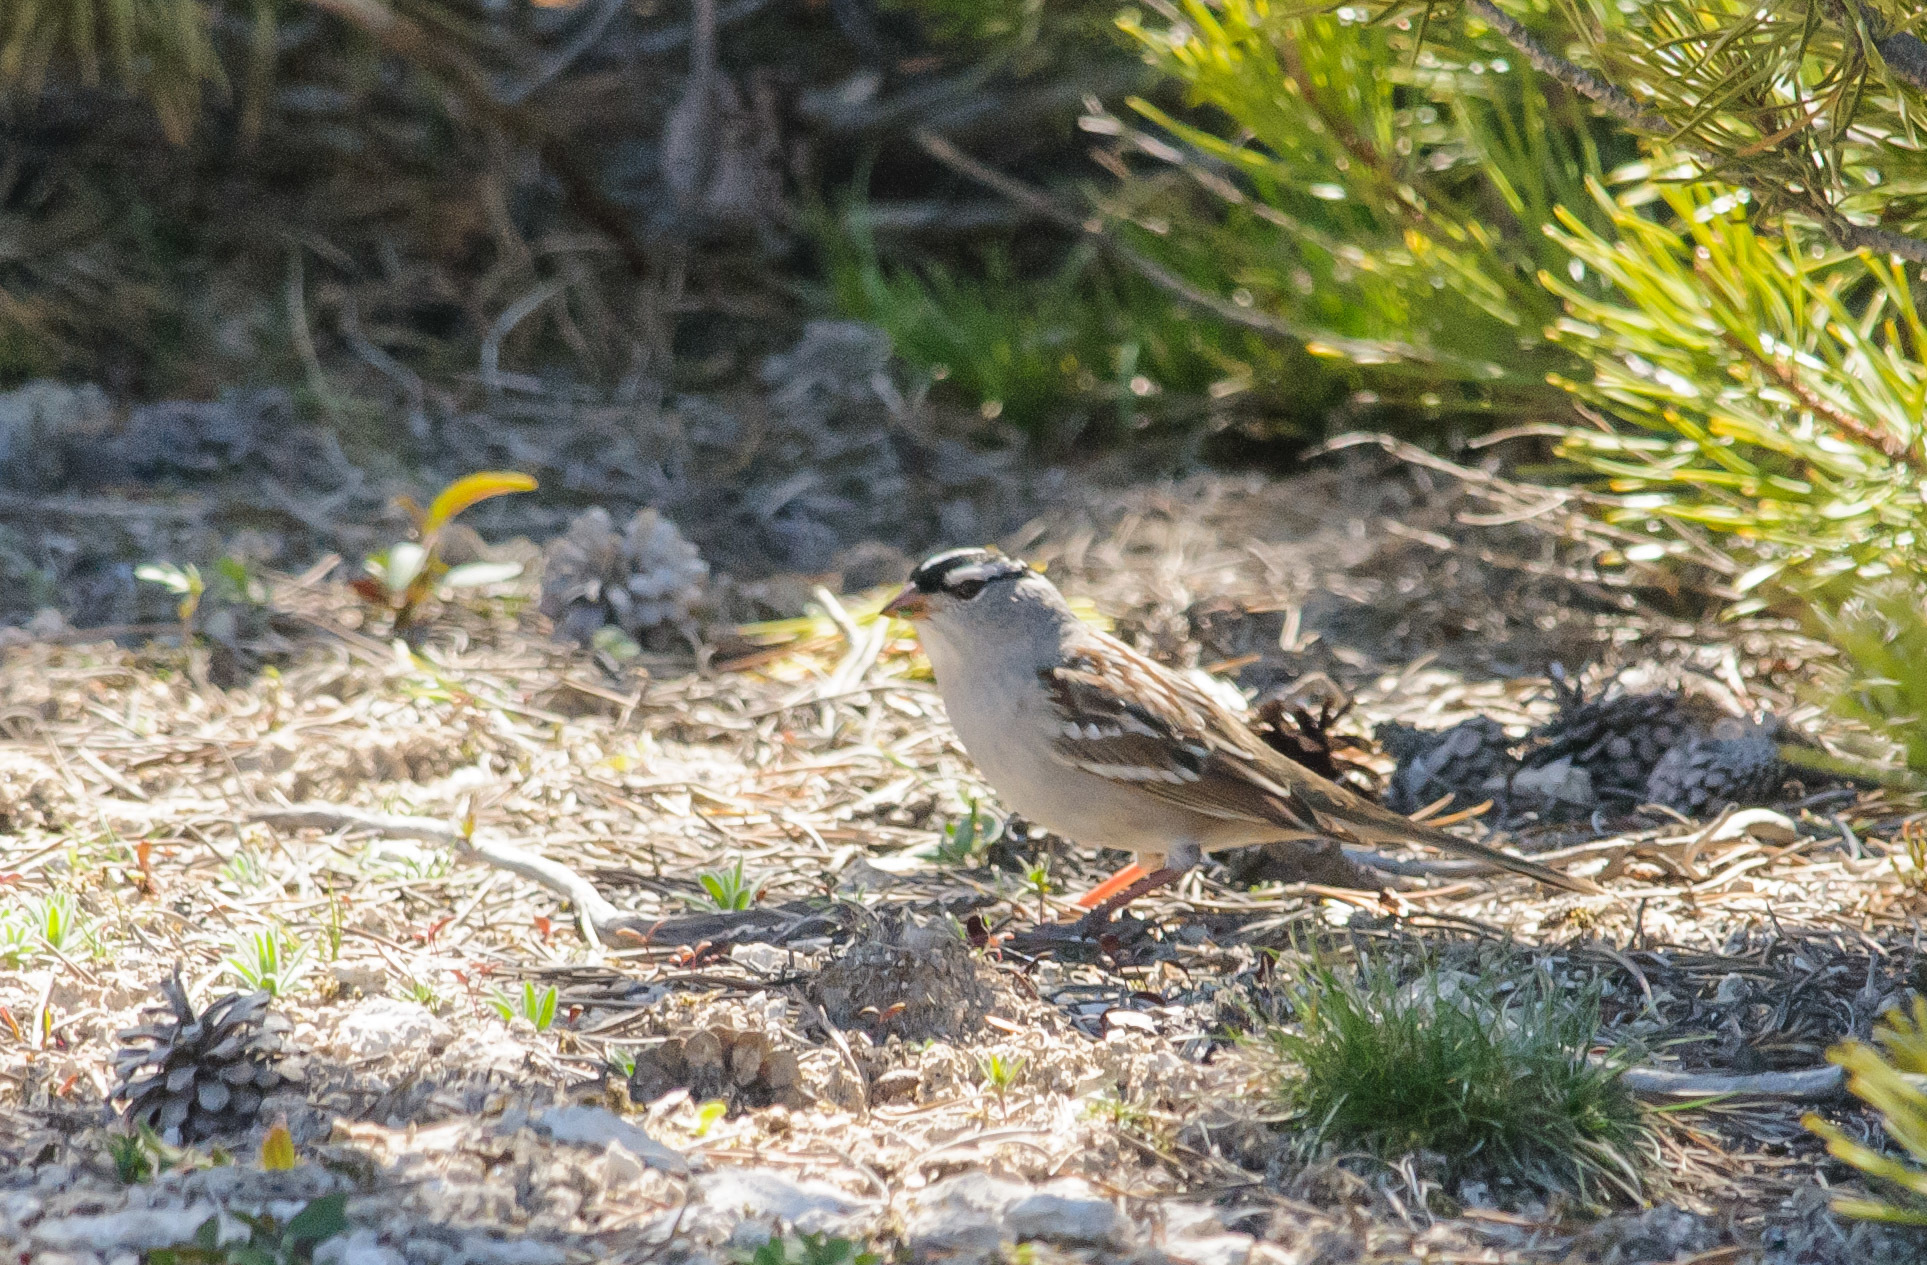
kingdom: Animalia
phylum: Chordata
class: Aves
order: Passeriformes
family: Passerellidae
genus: Zonotrichia
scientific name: Zonotrichia leucophrys
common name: White-crowned sparrow
